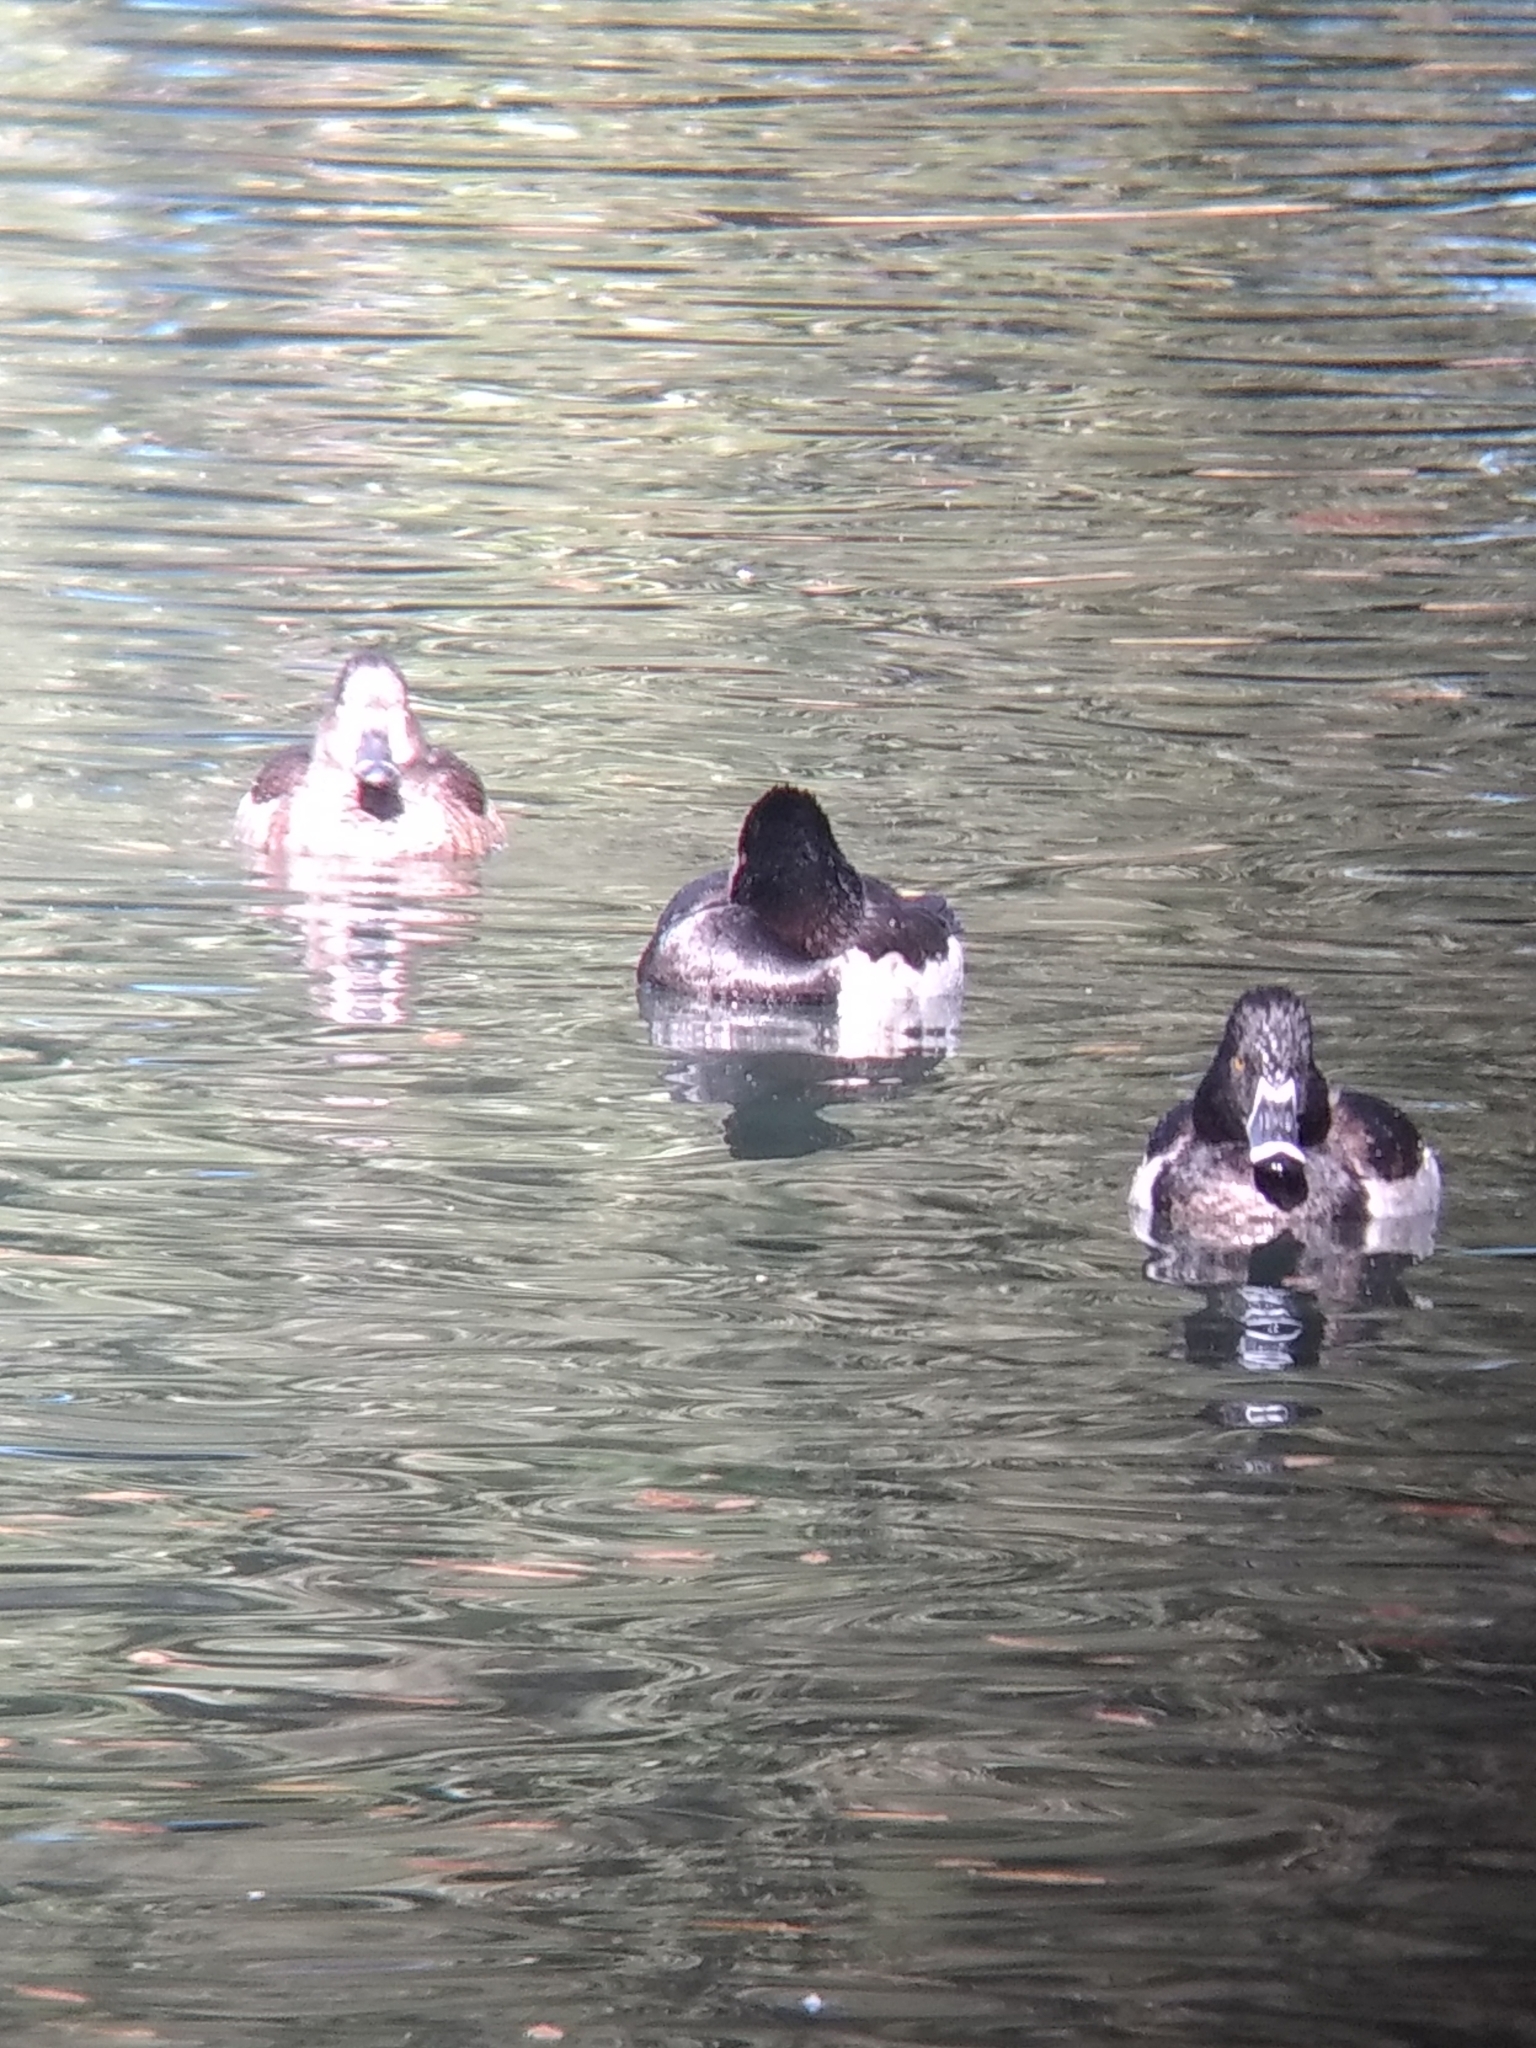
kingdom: Animalia
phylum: Chordata
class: Aves
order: Anseriformes
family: Anatidae
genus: Aythya
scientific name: Aythya collaris
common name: Ring-necked duck
